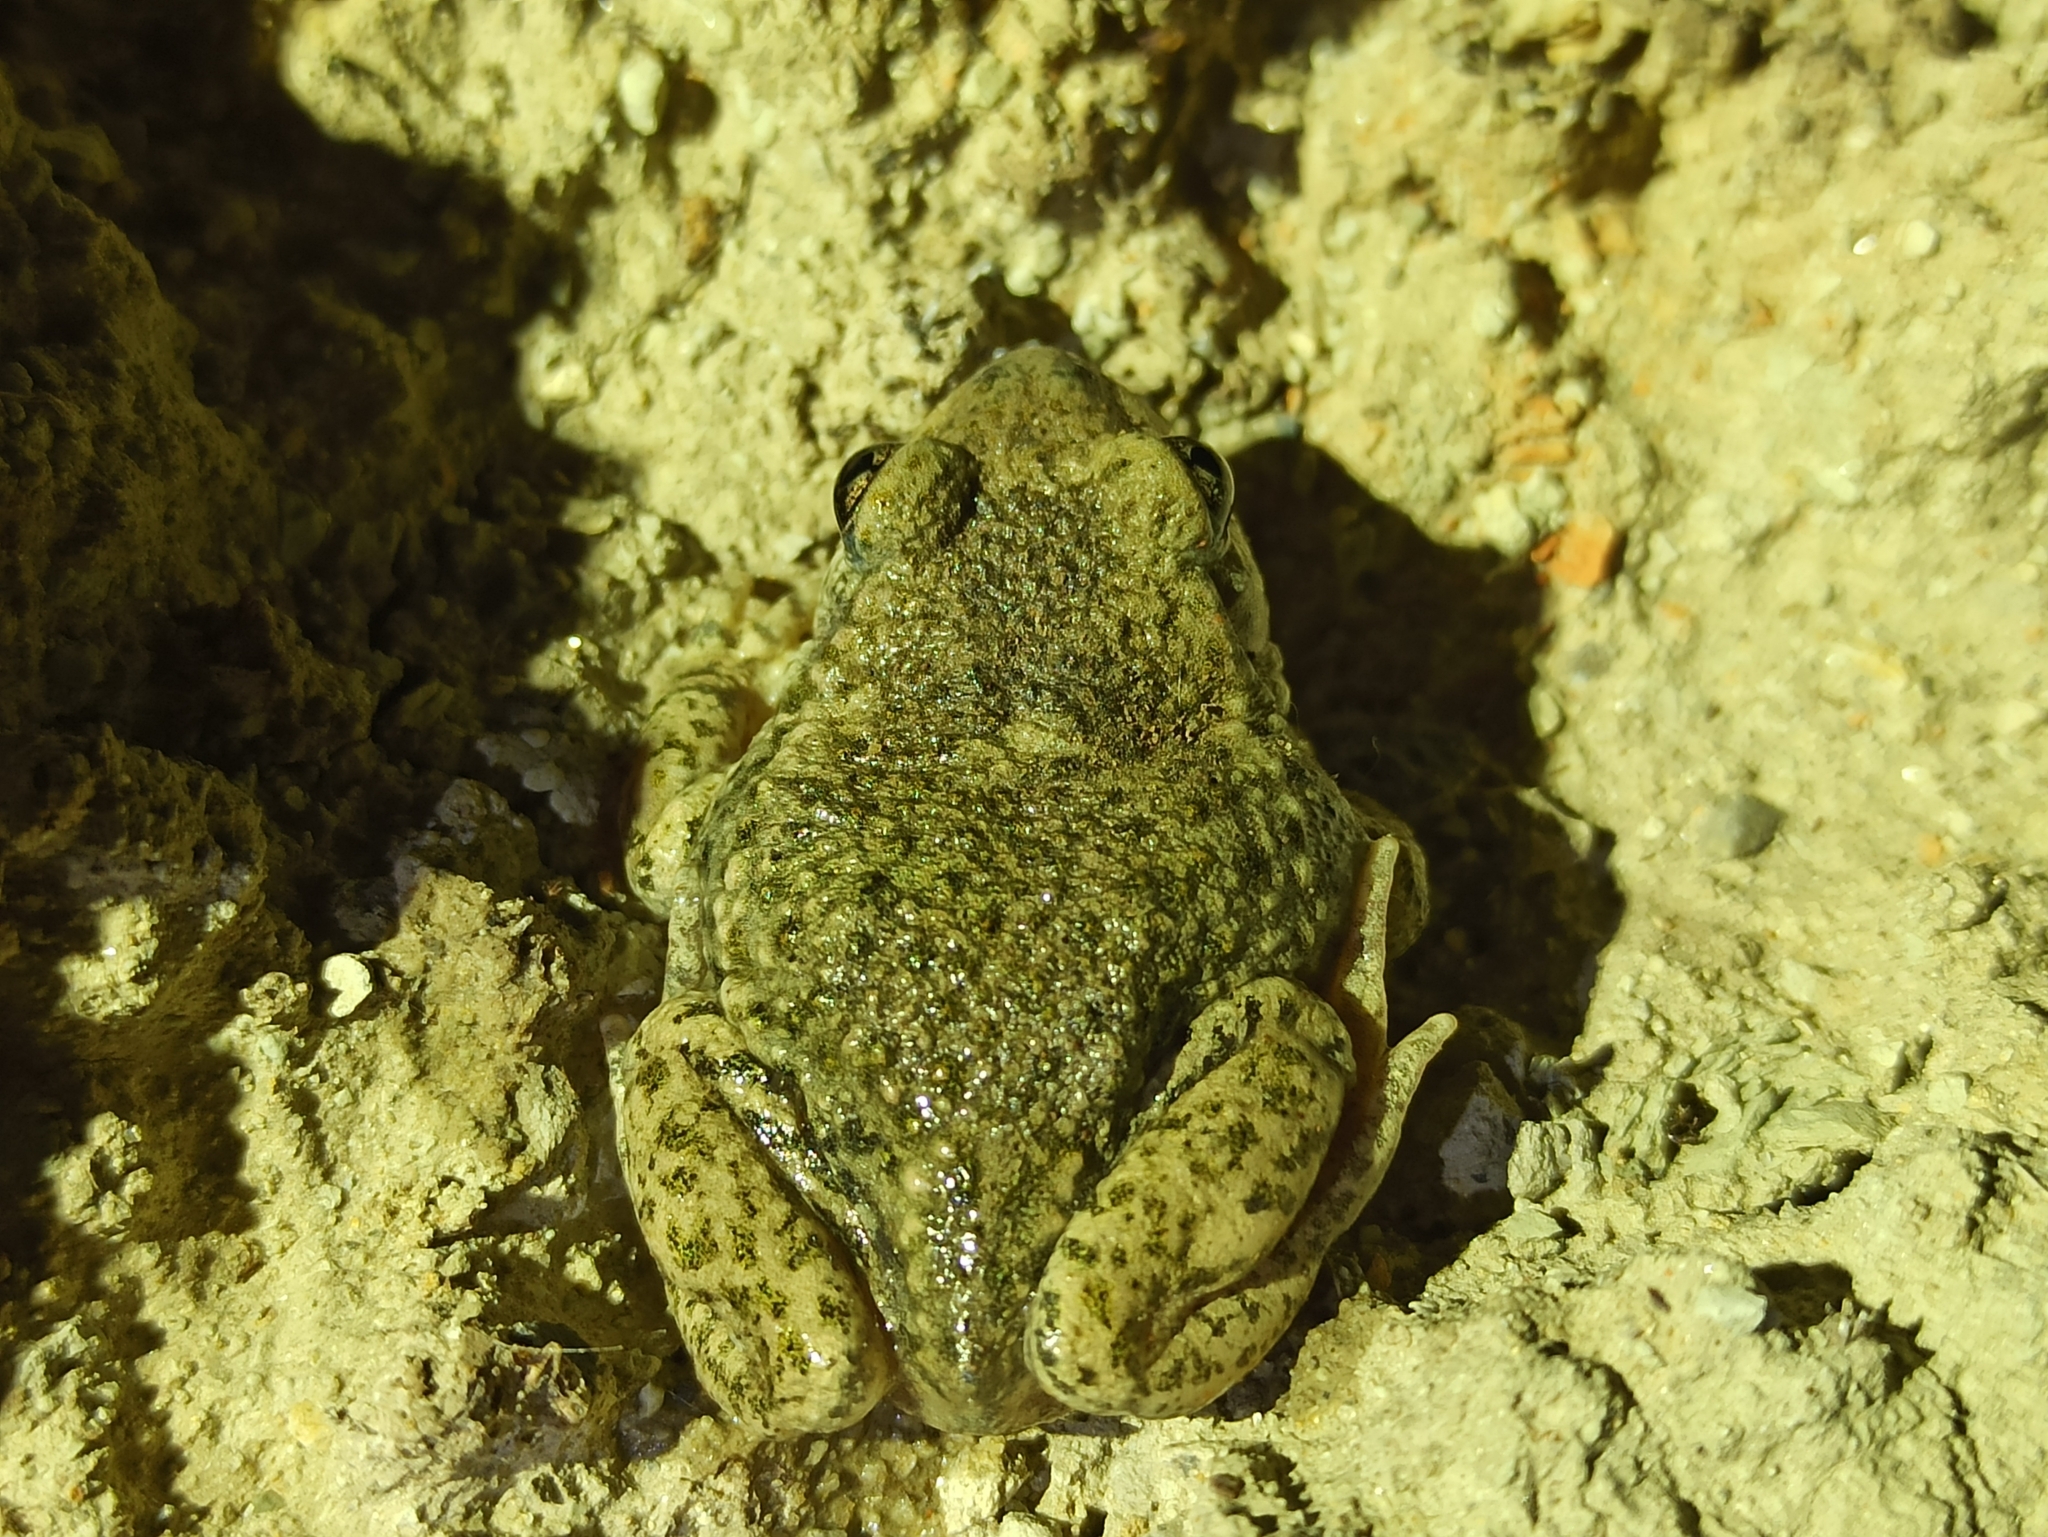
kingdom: Animalia
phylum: Chordata
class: Amphibia
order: Anura
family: Alytidae
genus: Alytes
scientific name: Alytes obstetricans
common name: Midwife toad
